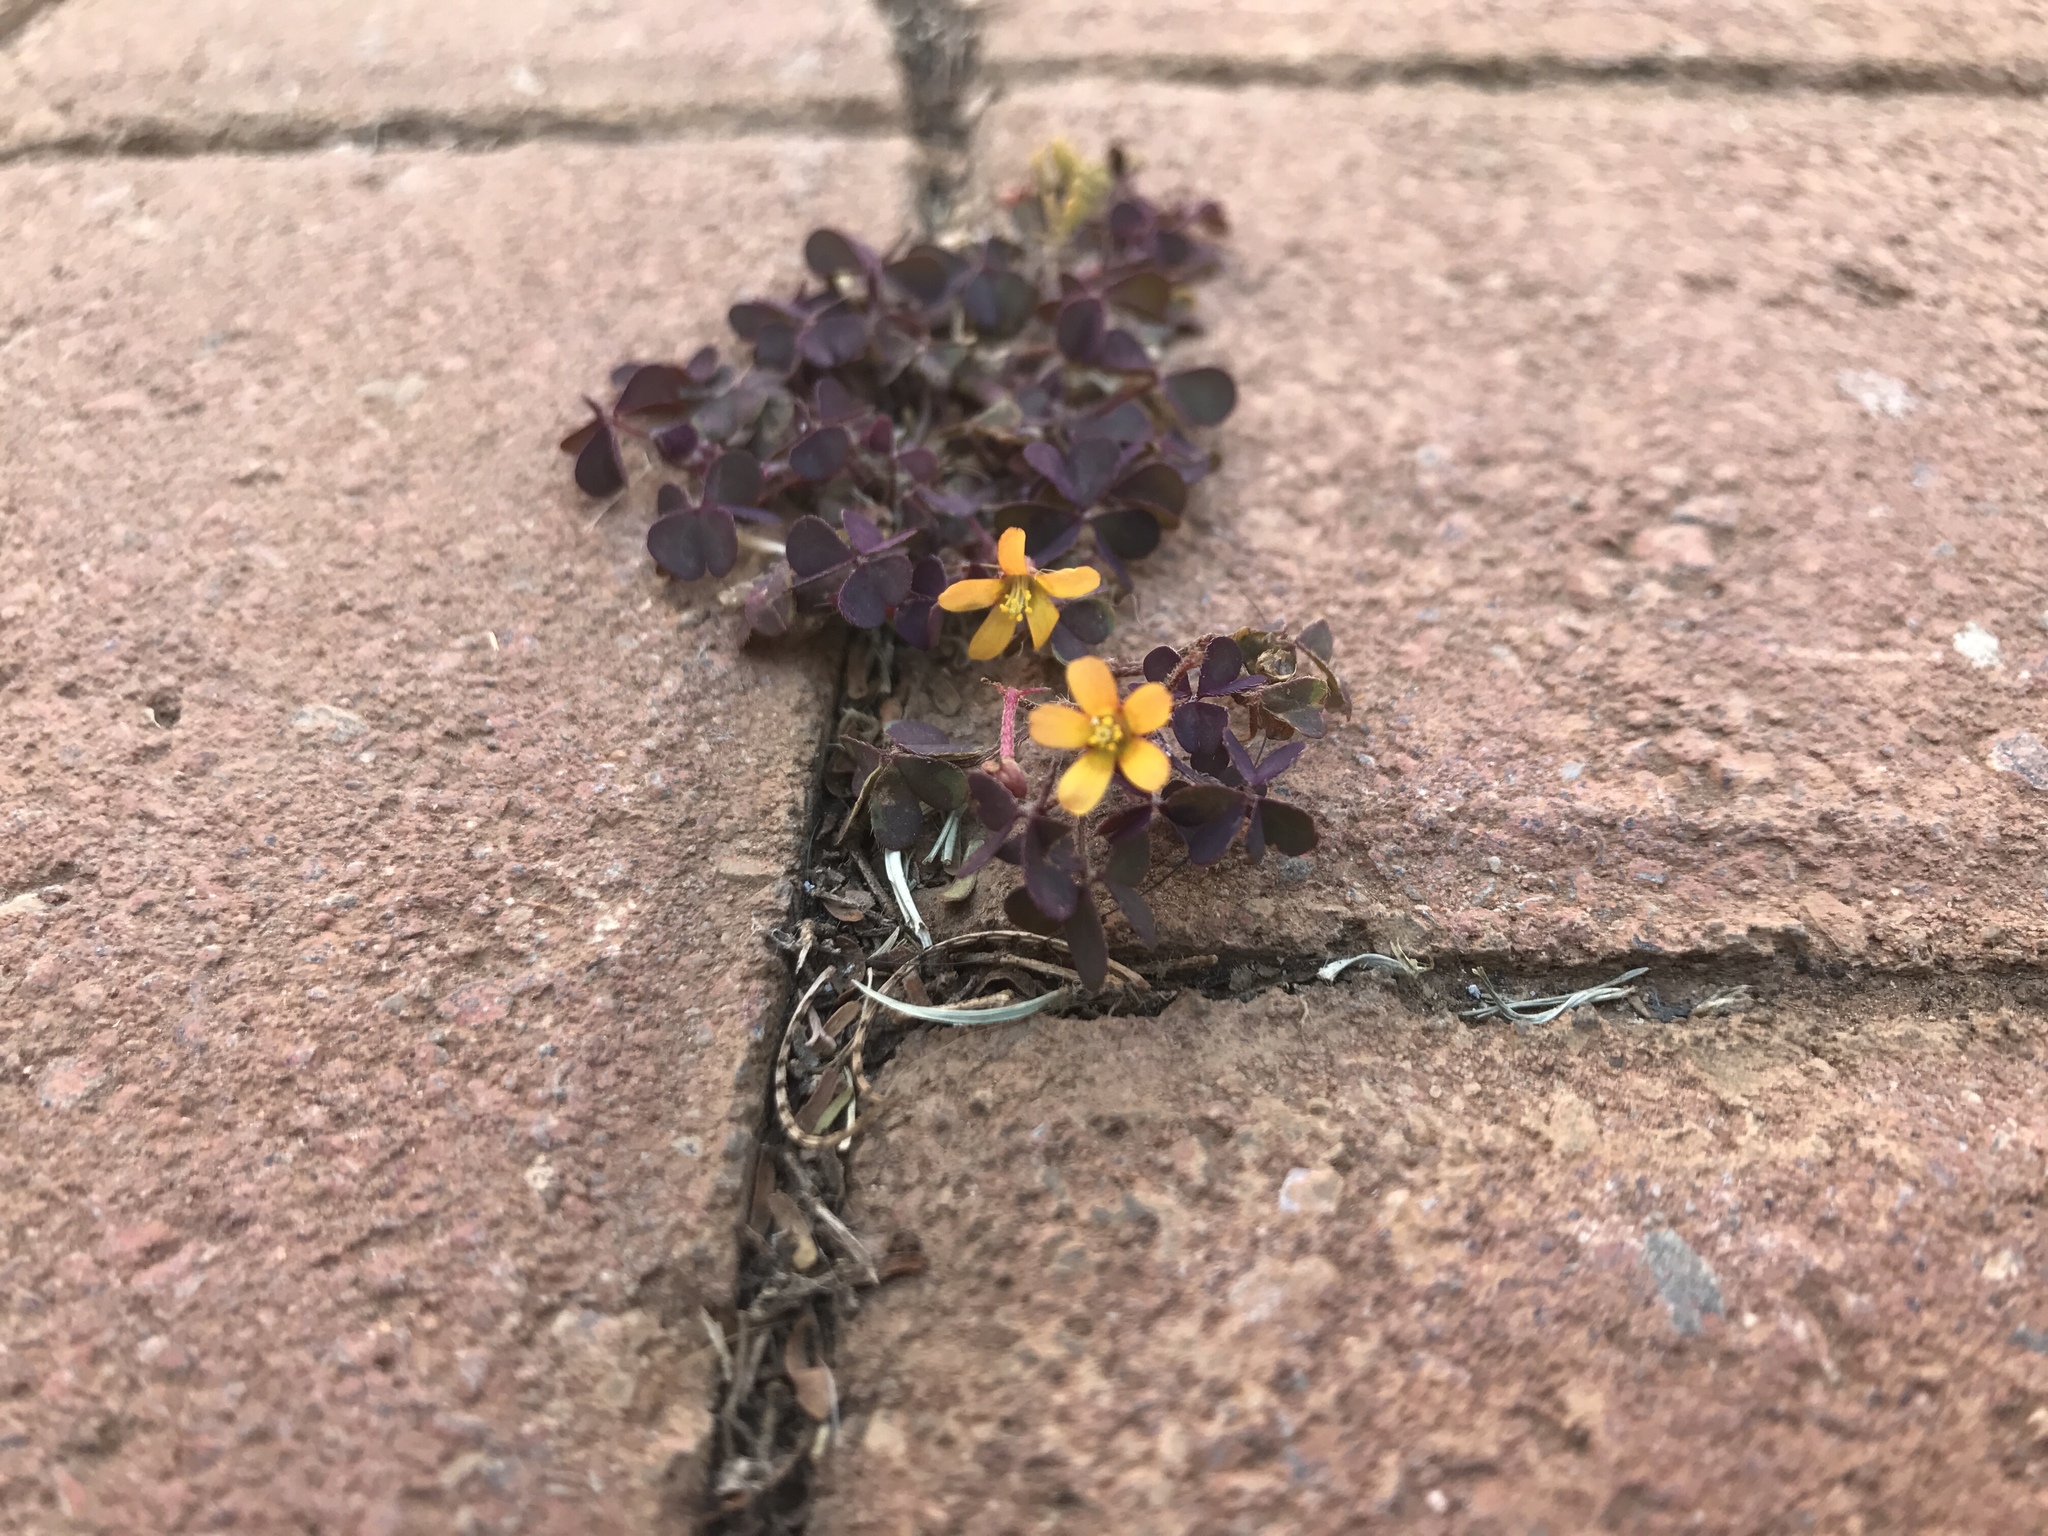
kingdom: Plantae
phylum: Tracheophyta
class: Magnoliopsida
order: Oxalidales
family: Oxalidaceae
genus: Oxalis
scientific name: Oxalis corniculata
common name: Procumbent yellow-sorrel
